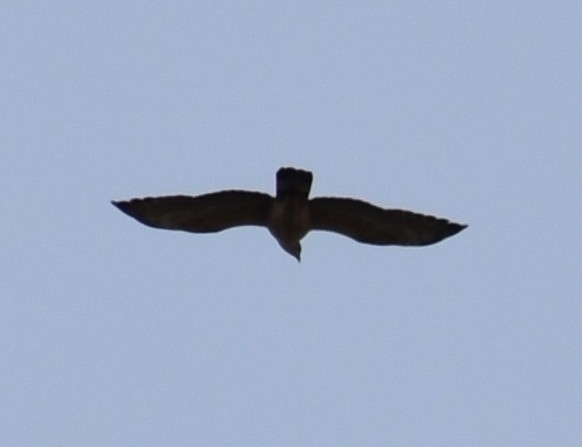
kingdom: Animalia
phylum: Chordata
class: Aves
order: Accipitriformes
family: Accipitridae
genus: Pernis
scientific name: Pernis ptilorhynchus
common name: Crested honey buzzard
